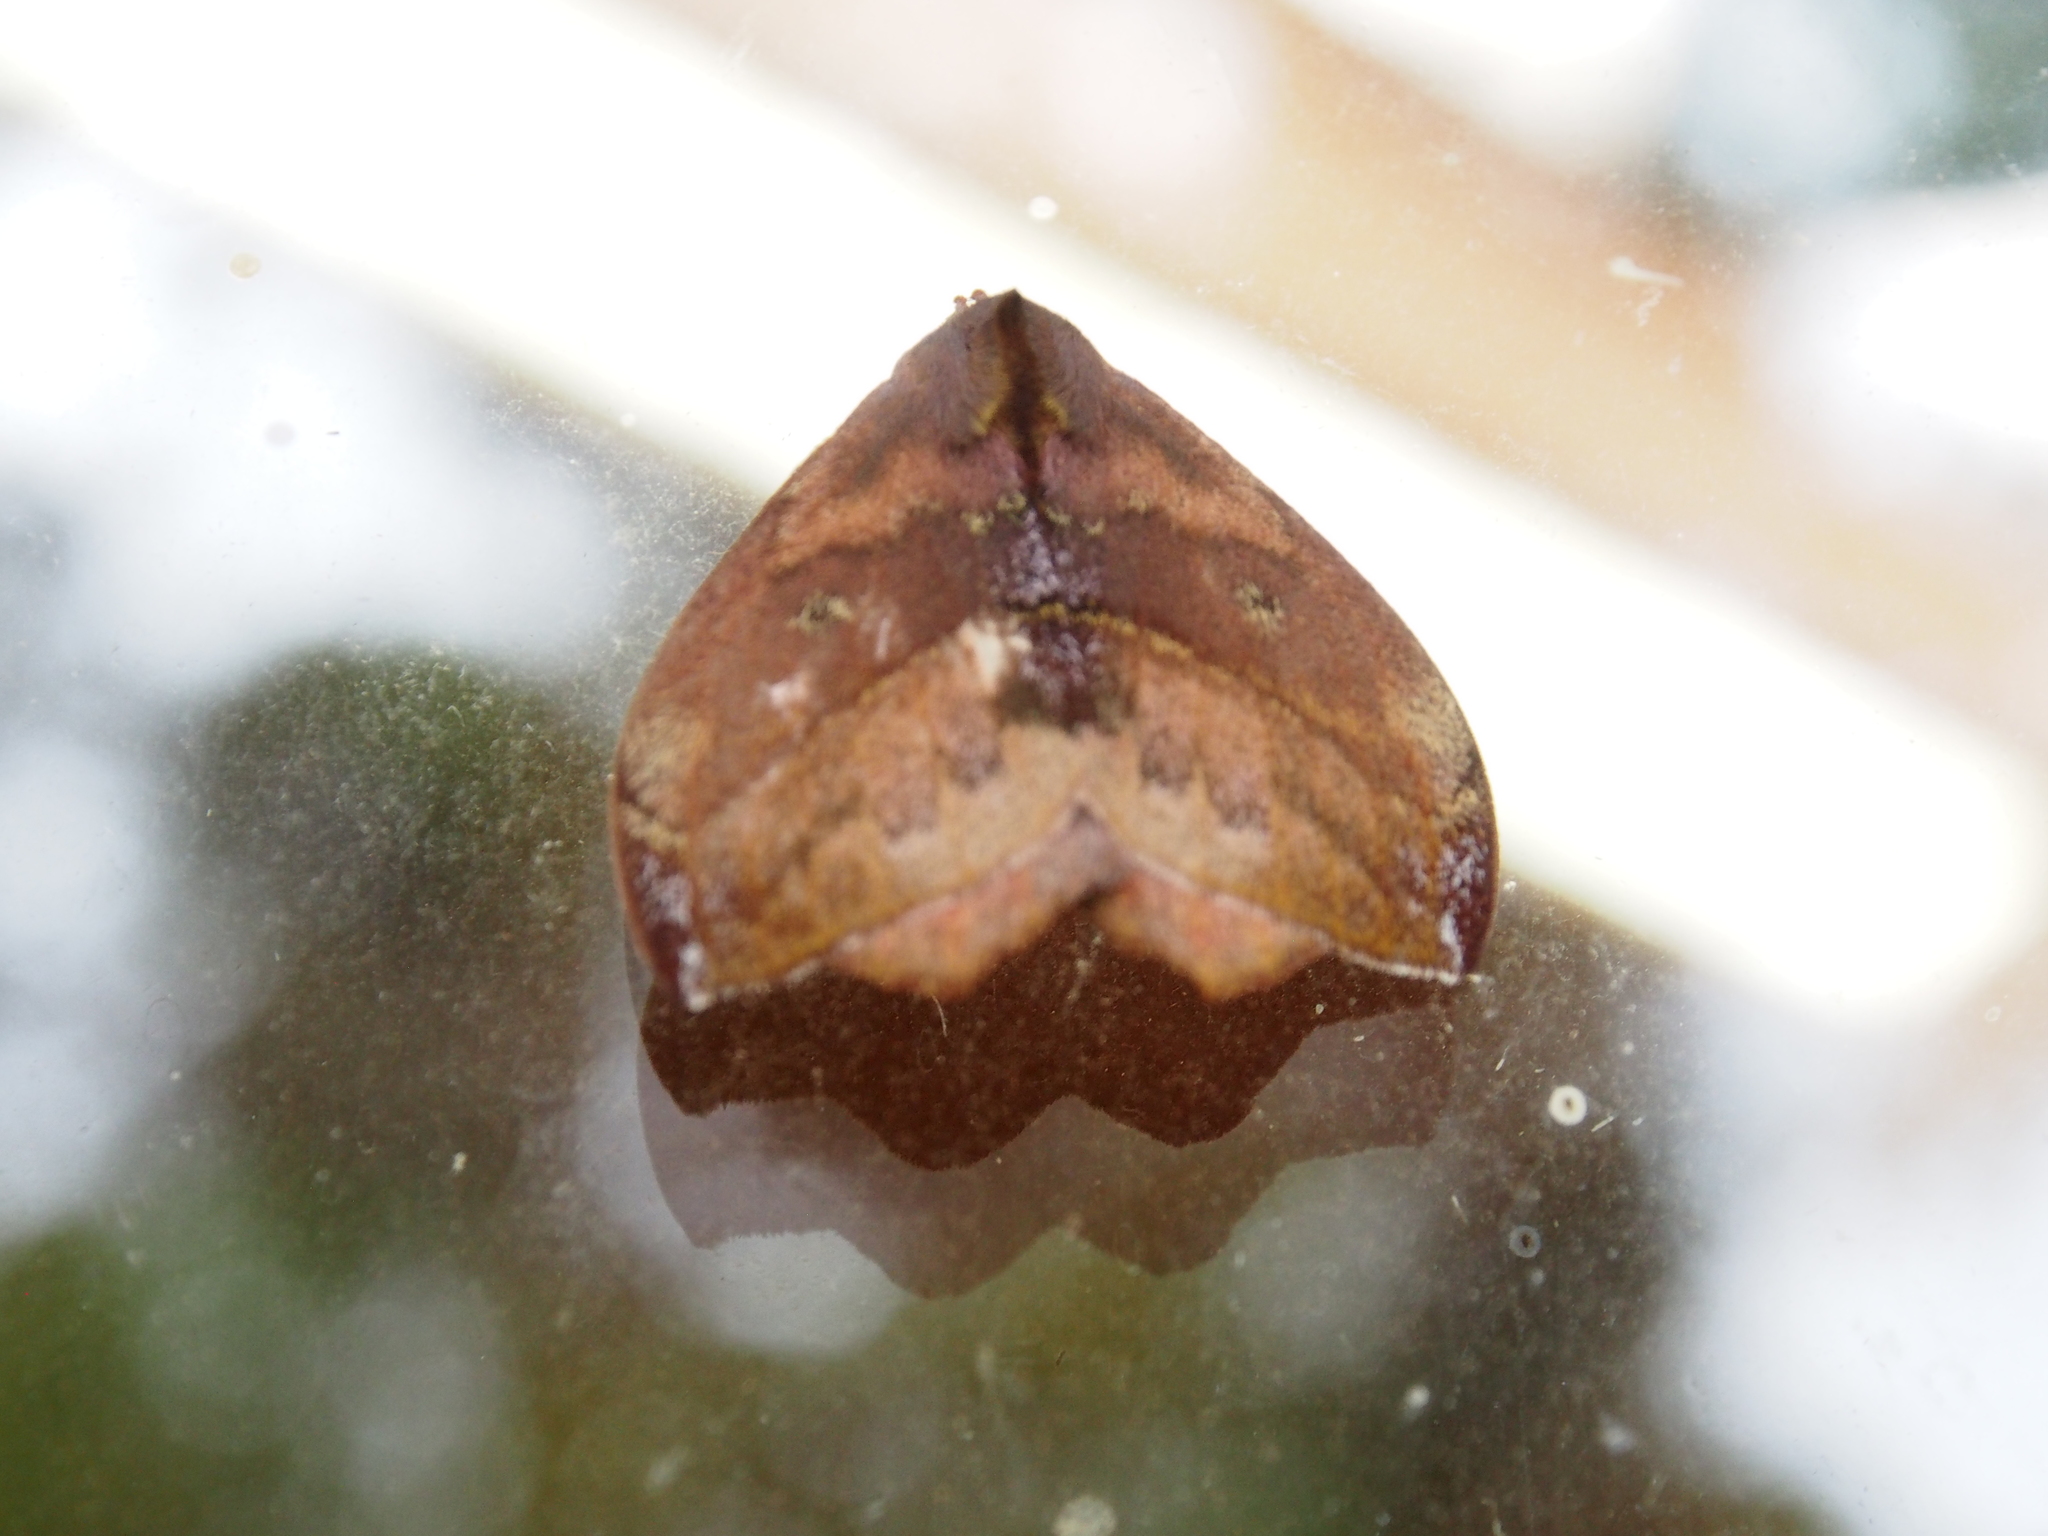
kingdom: Animalia
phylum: Arthropoda
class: Insecta
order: Lepidoptera
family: Saturniidae
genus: Hylesia
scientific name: Hylesia aeneides
